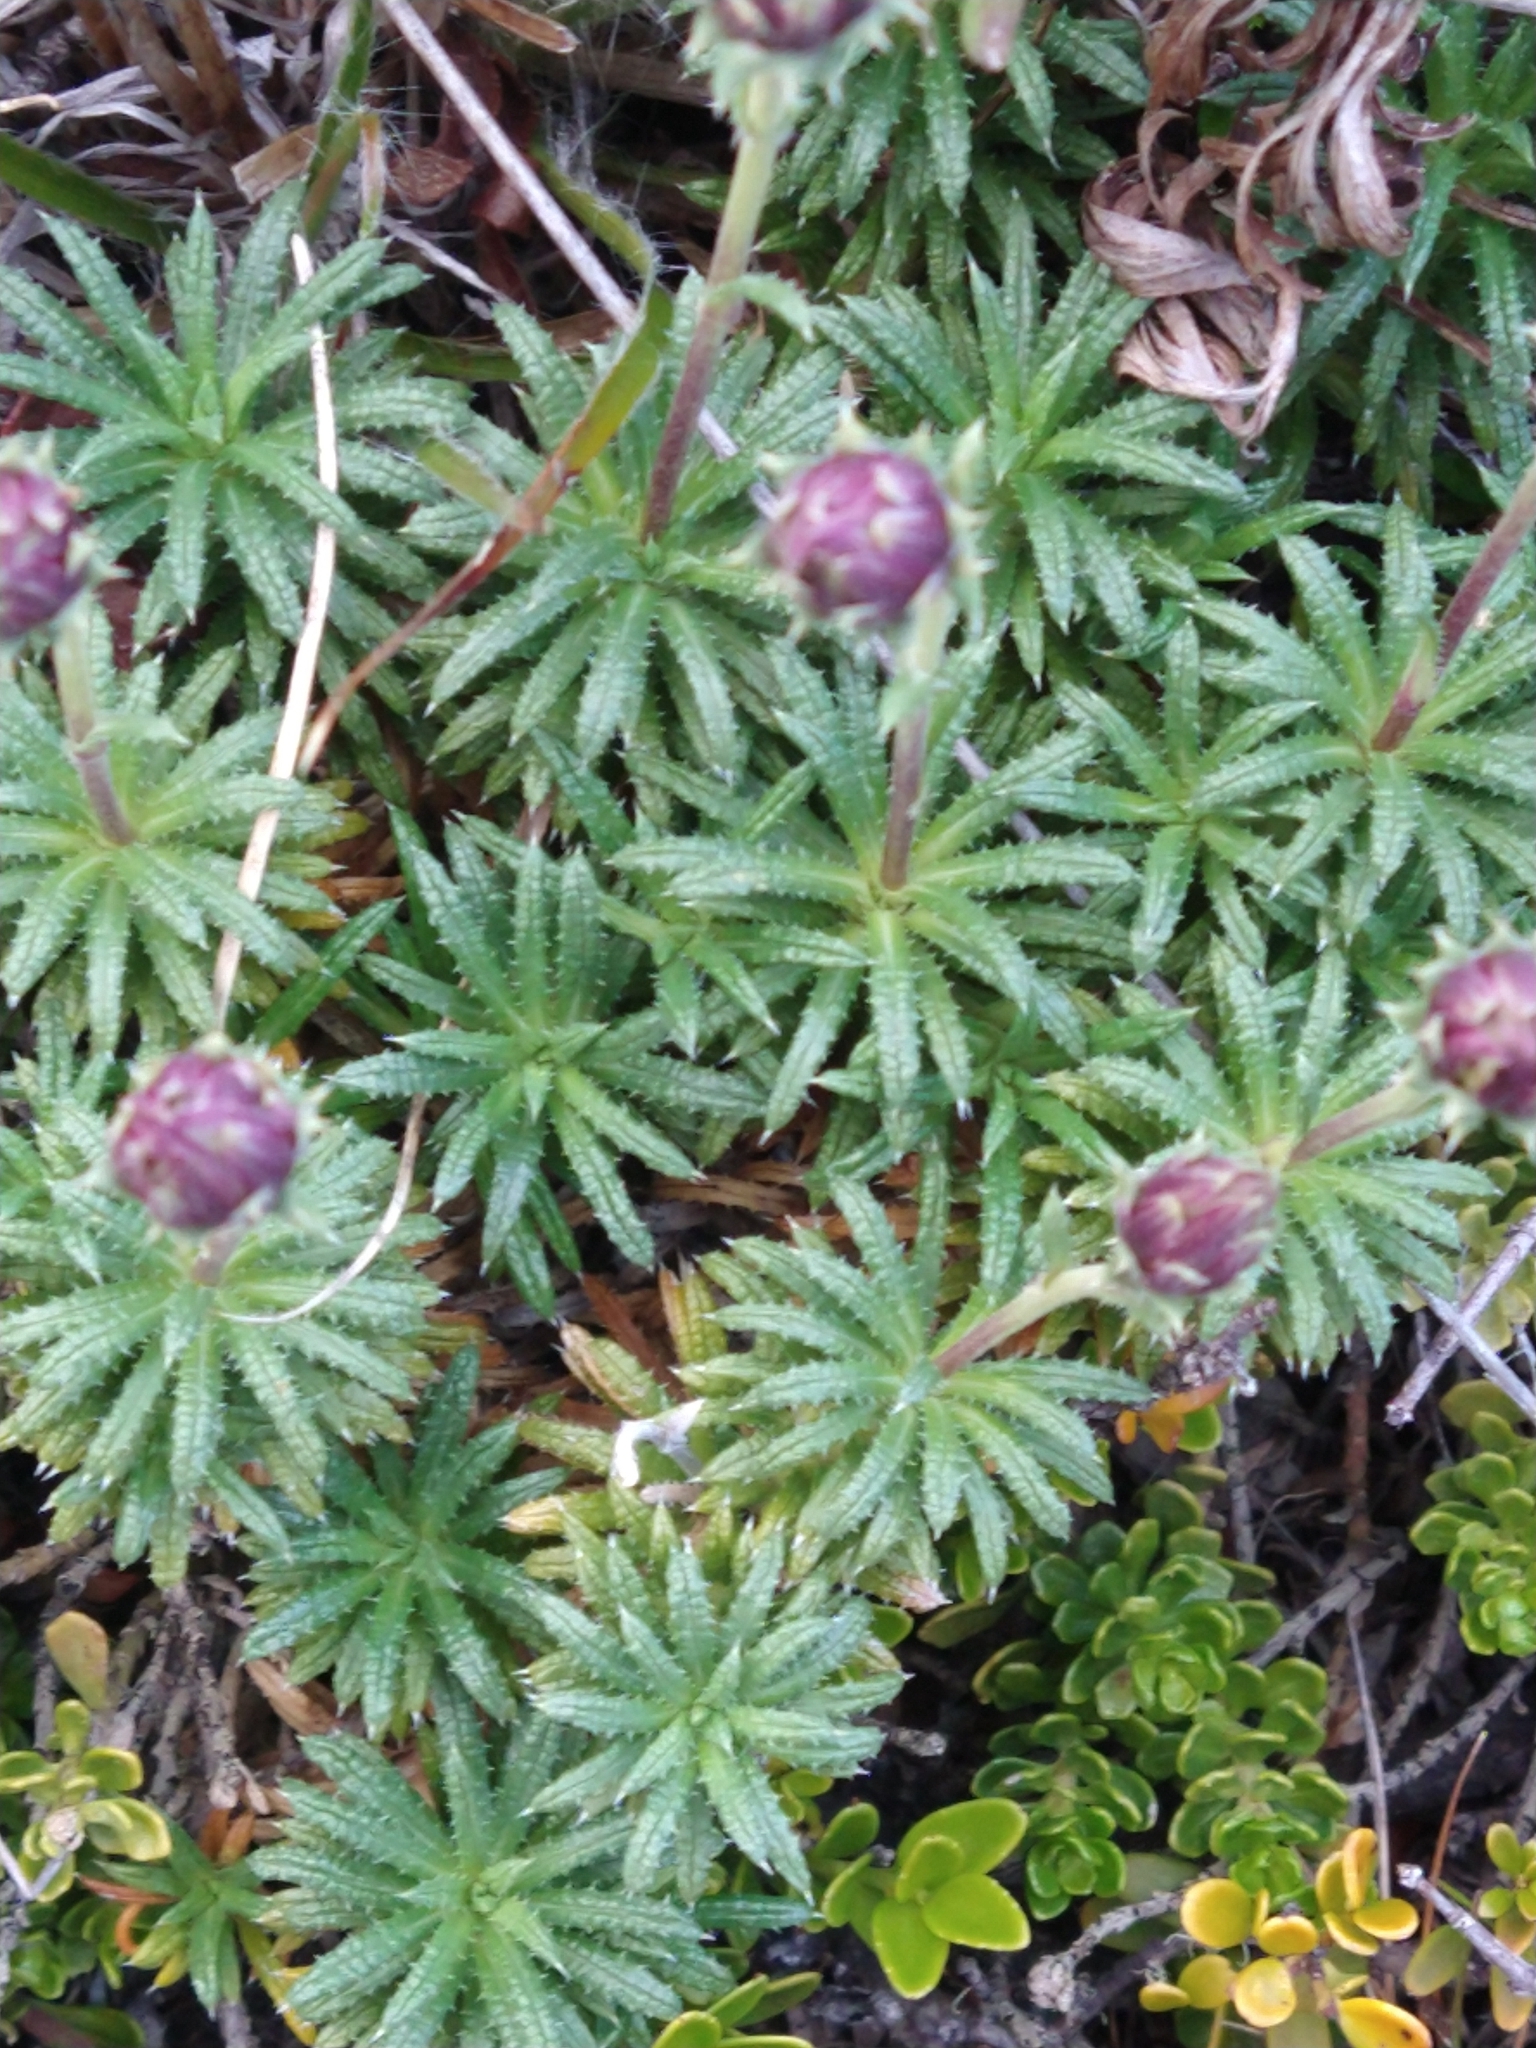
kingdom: Plantae
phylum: Tracheophyta
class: Magnoliopsida
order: Asterales
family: Asteraceae
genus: Perezia
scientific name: Perezia recurvata
